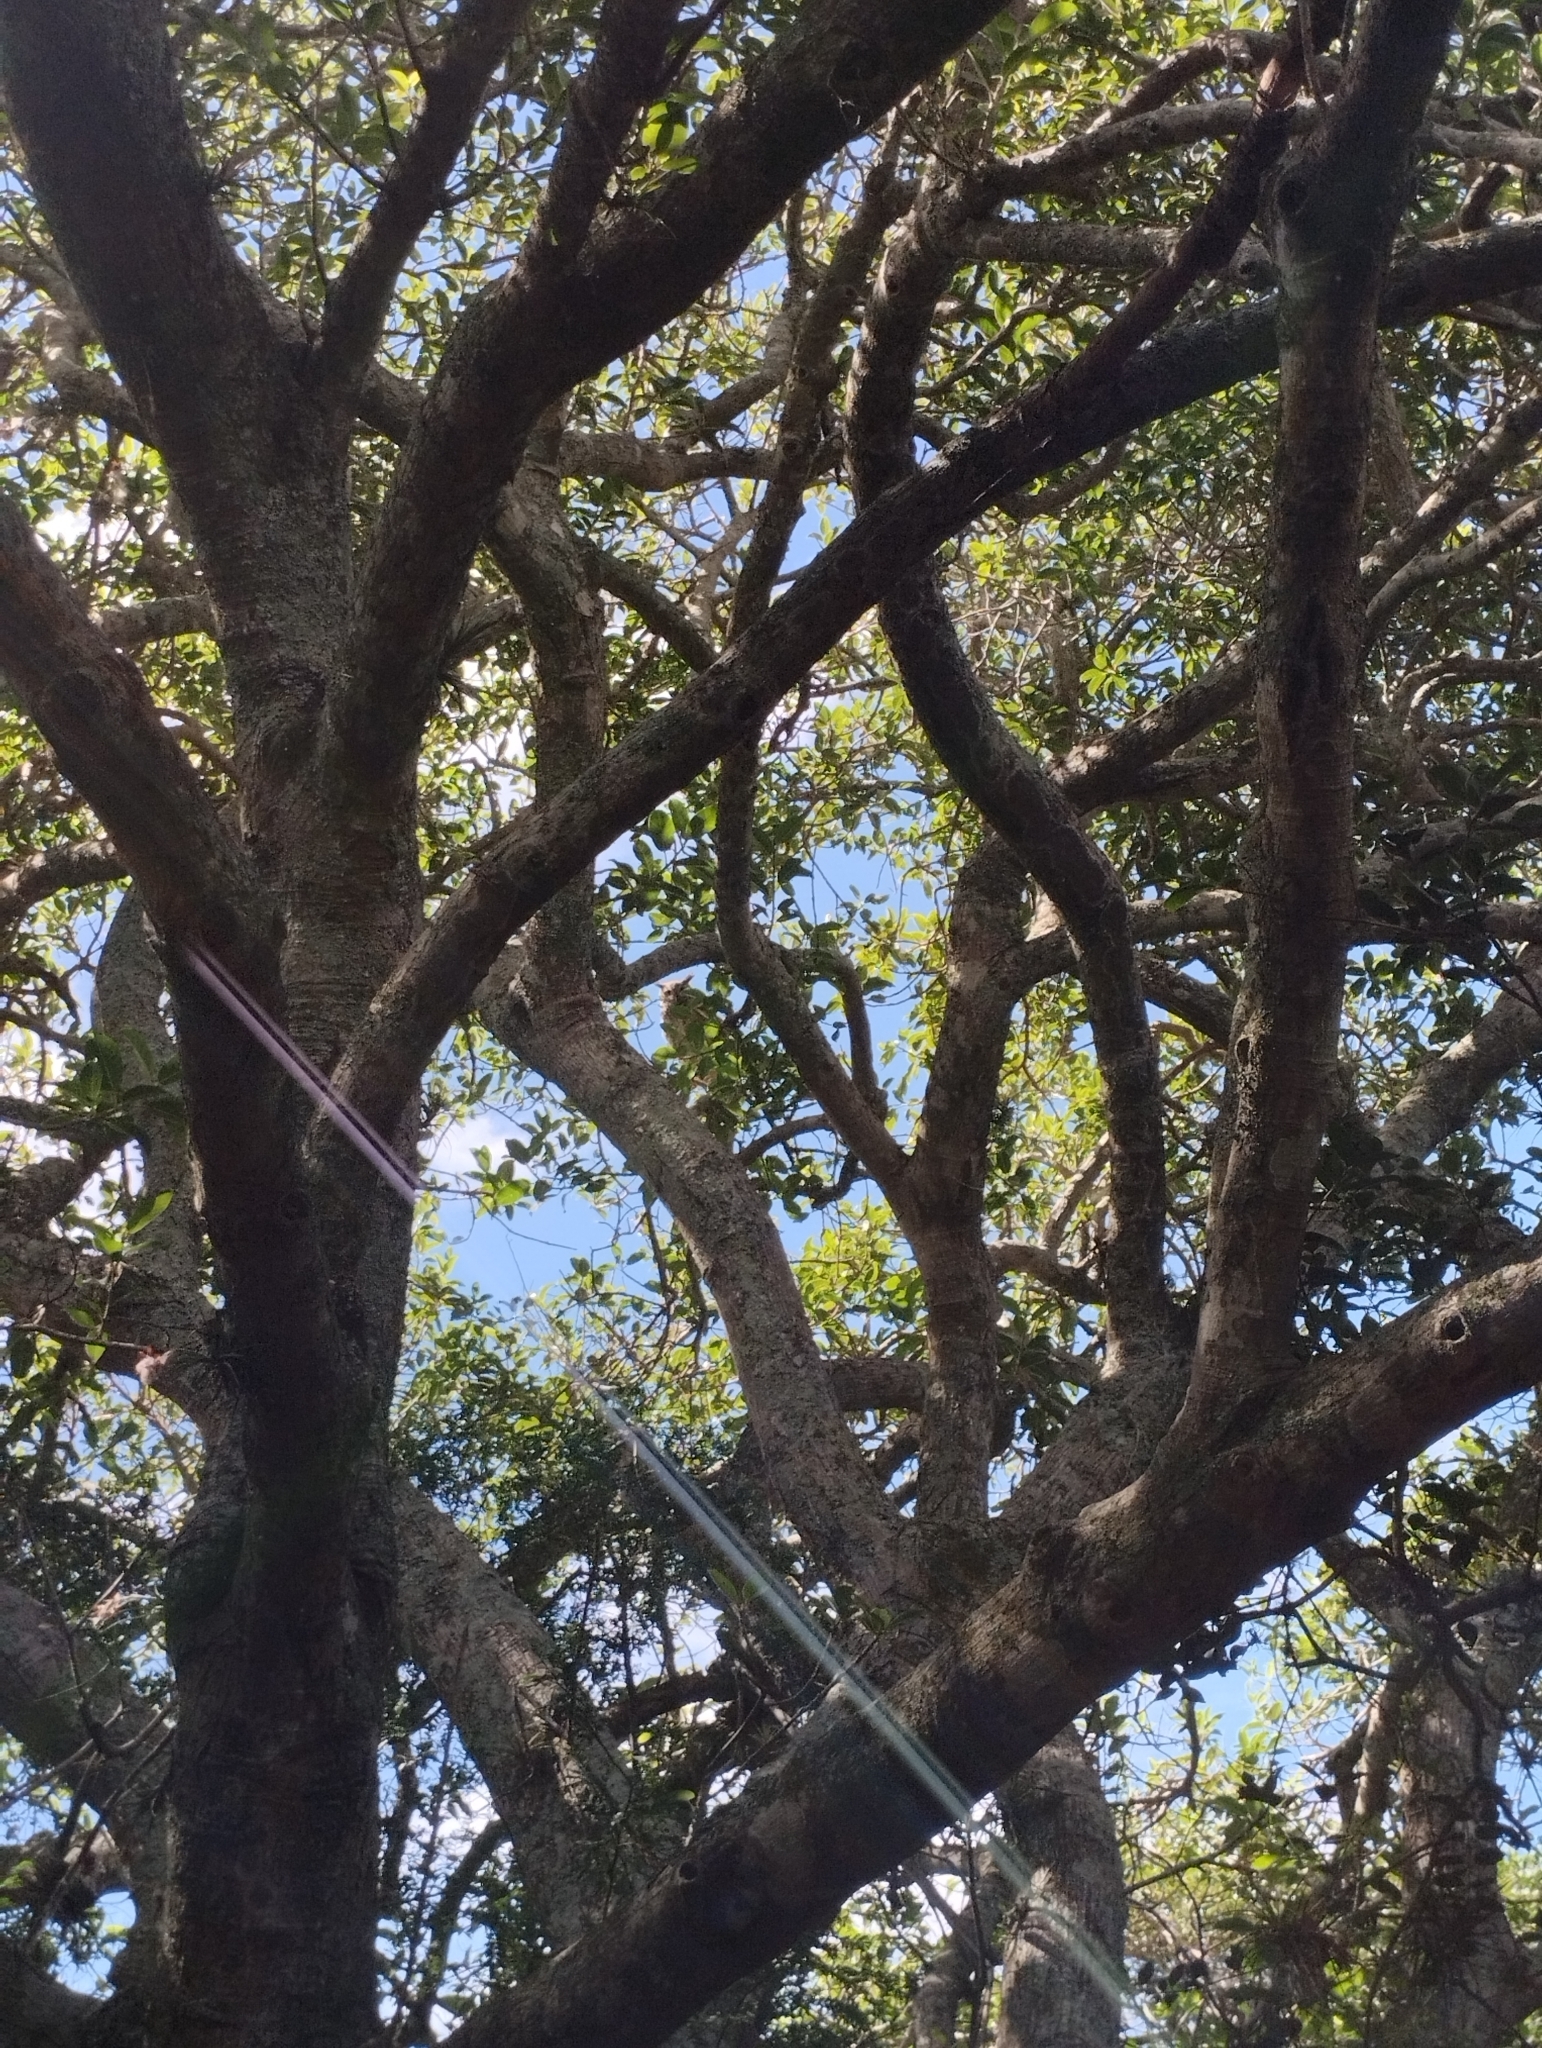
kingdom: Animalia
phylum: Chordata
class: Aves
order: Strigiformes
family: Strigidae
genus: Bubo
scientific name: Bubo virginianus
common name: Great horned owl
